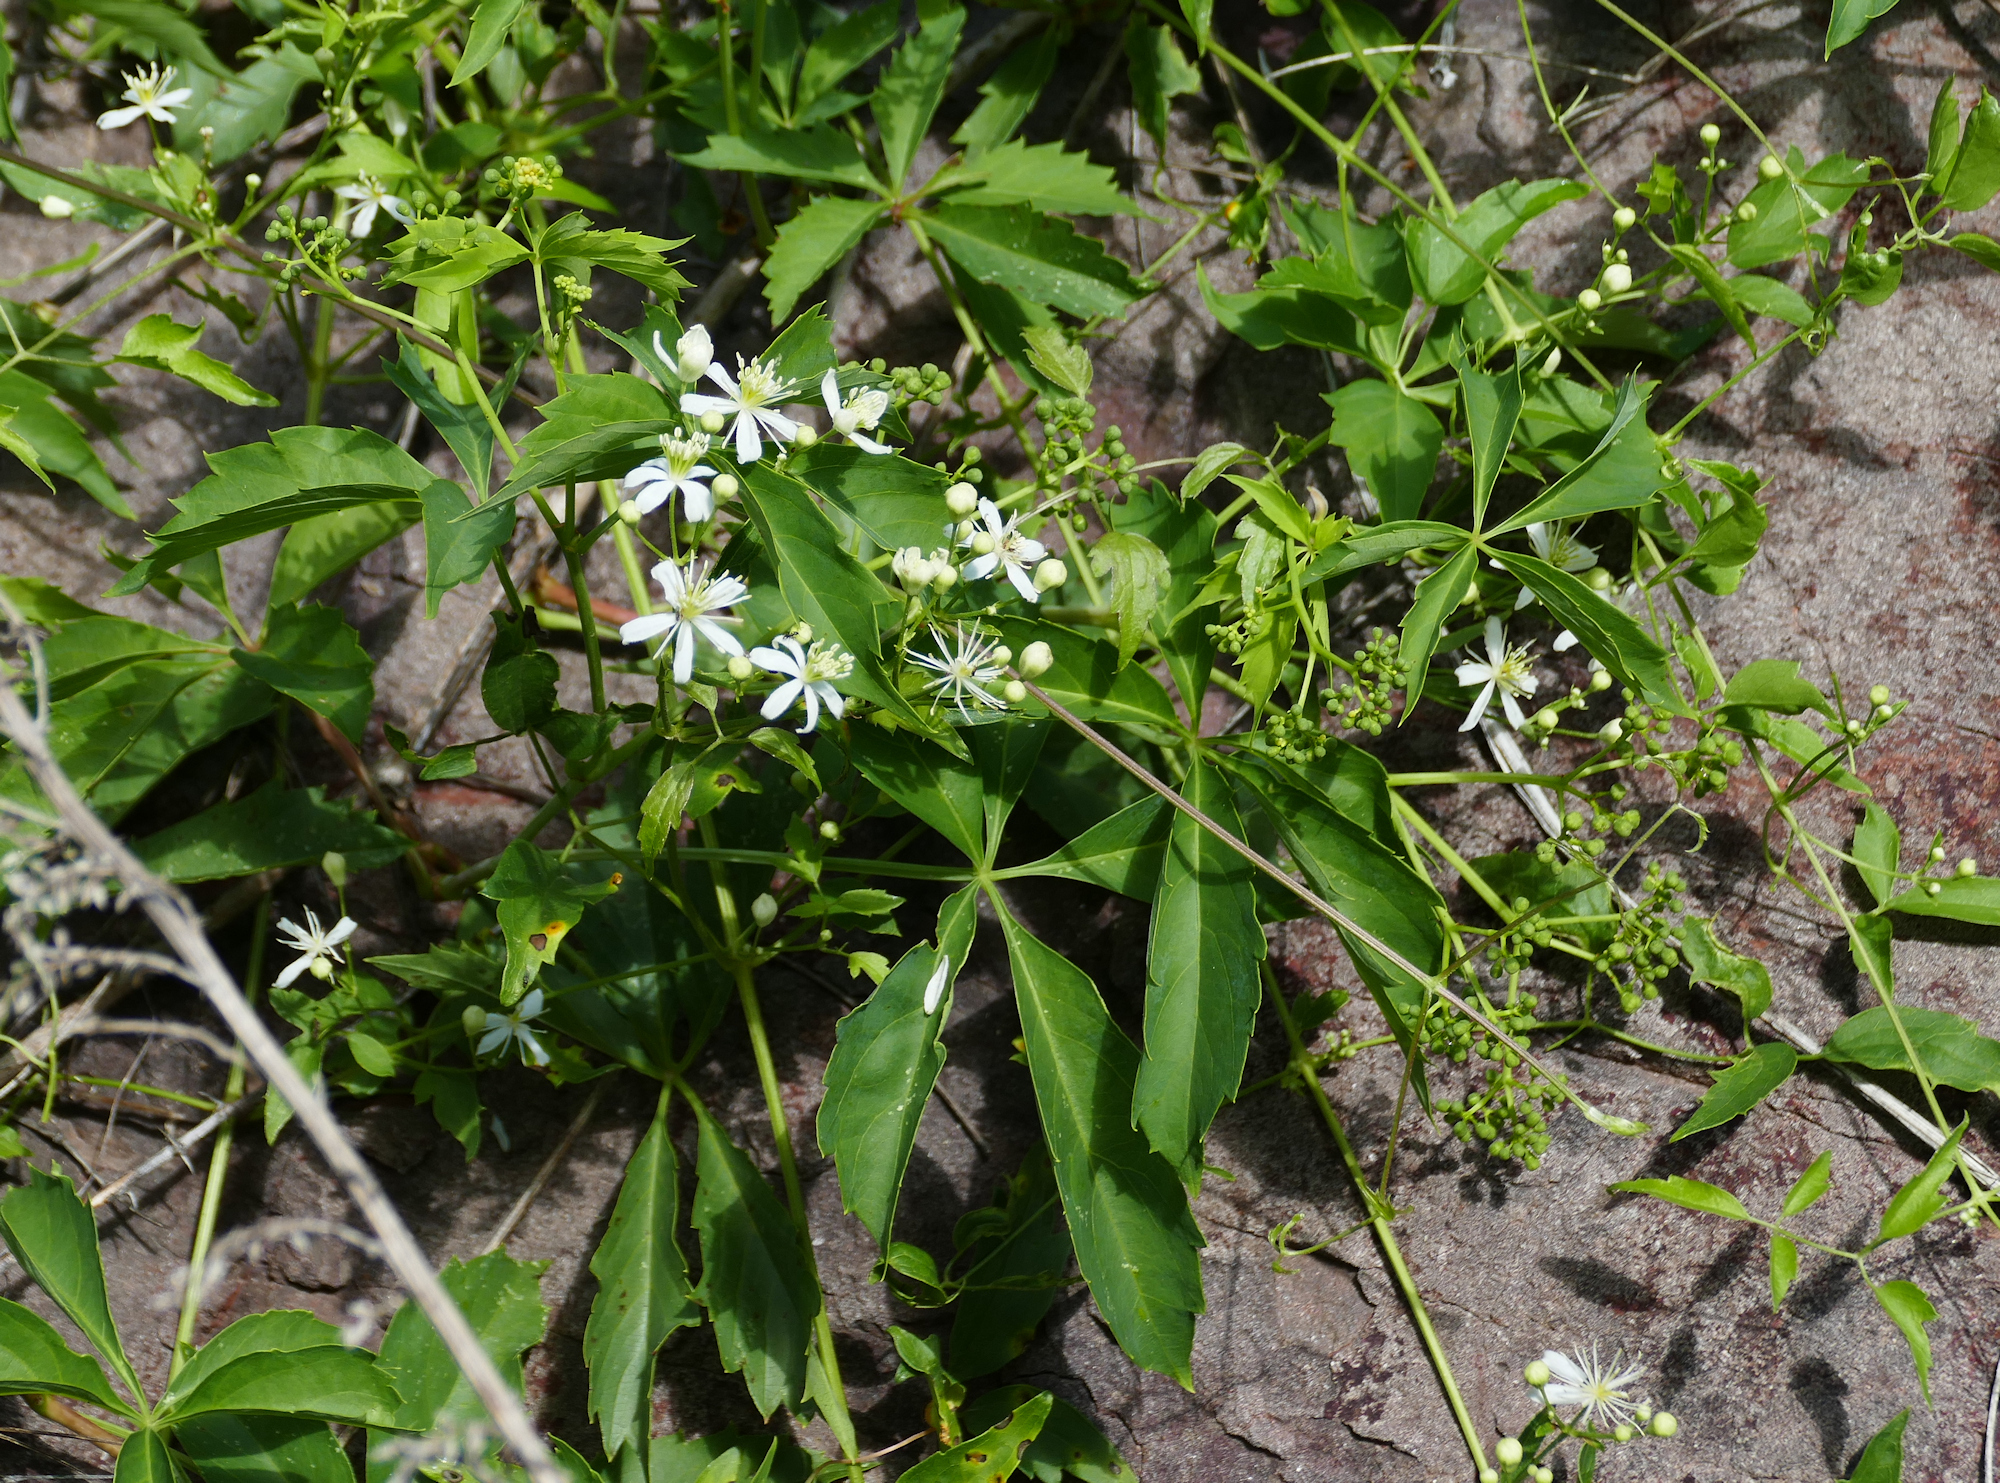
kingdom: Plantae
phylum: Tracheophyta
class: Magnoliopsida
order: Ranunculales
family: Ranunculaceae
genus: Clematis
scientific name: Clematis ligusticifolia
